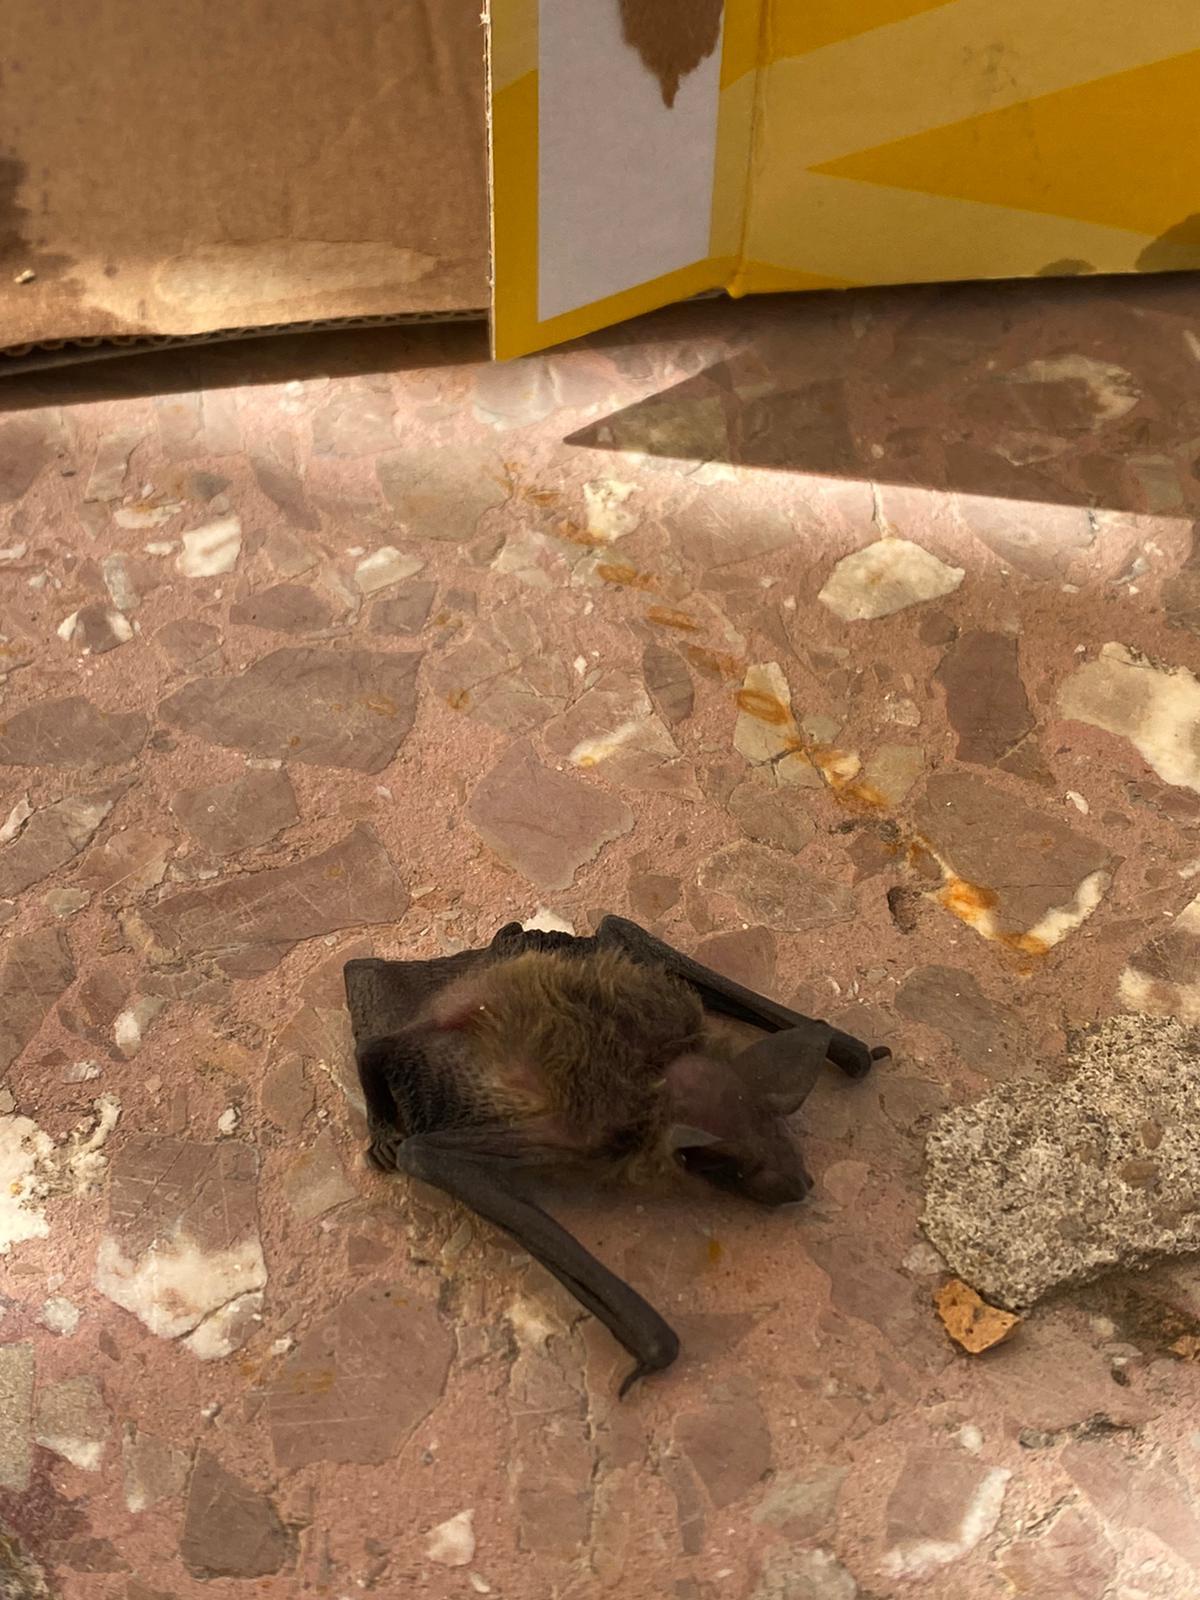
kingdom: Animalia
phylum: Chordata
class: Mammalia
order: Chiroptera
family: Vespertilionidae
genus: Pipistrellus
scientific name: Pipistrellus kuhlii
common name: Kuhl's pipistrelle
